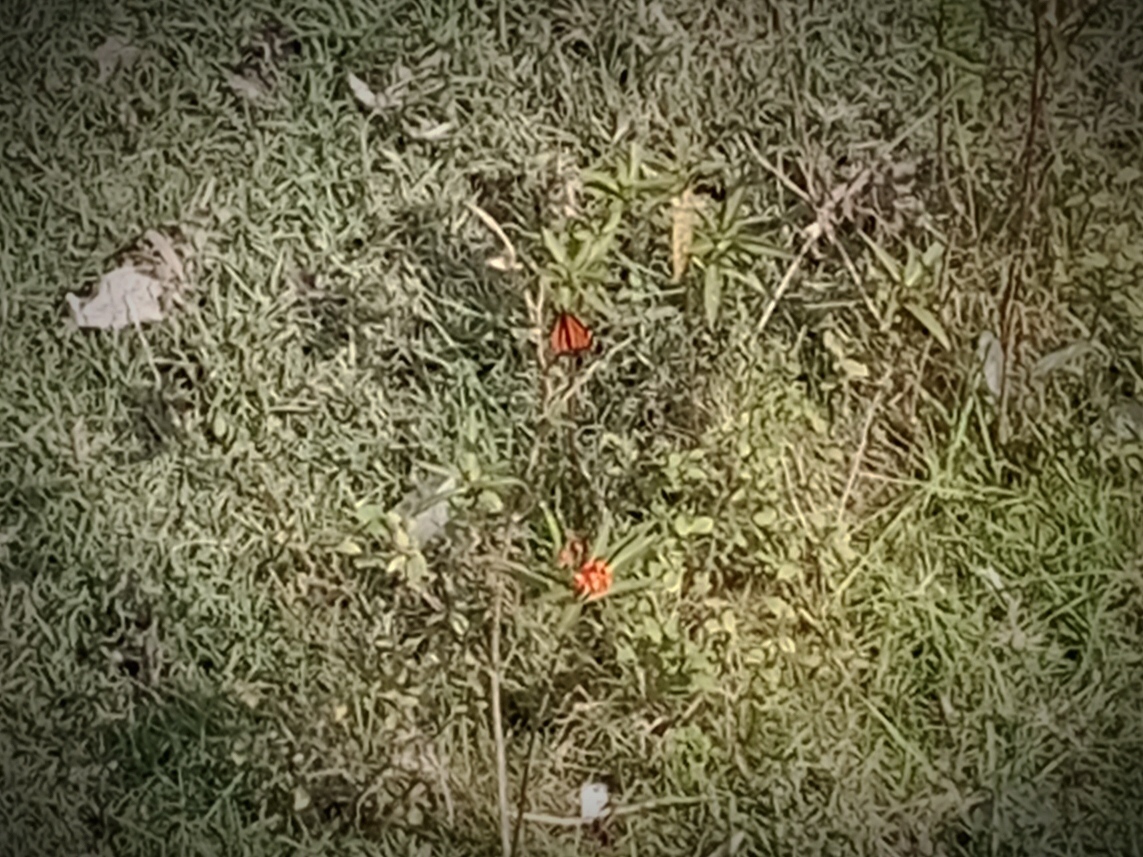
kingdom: Animalia
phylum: Arthropoda
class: Insecta
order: Lepidoptera
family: Nymphalidae
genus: Danaus
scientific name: Danaus plexippus
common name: Monarch
